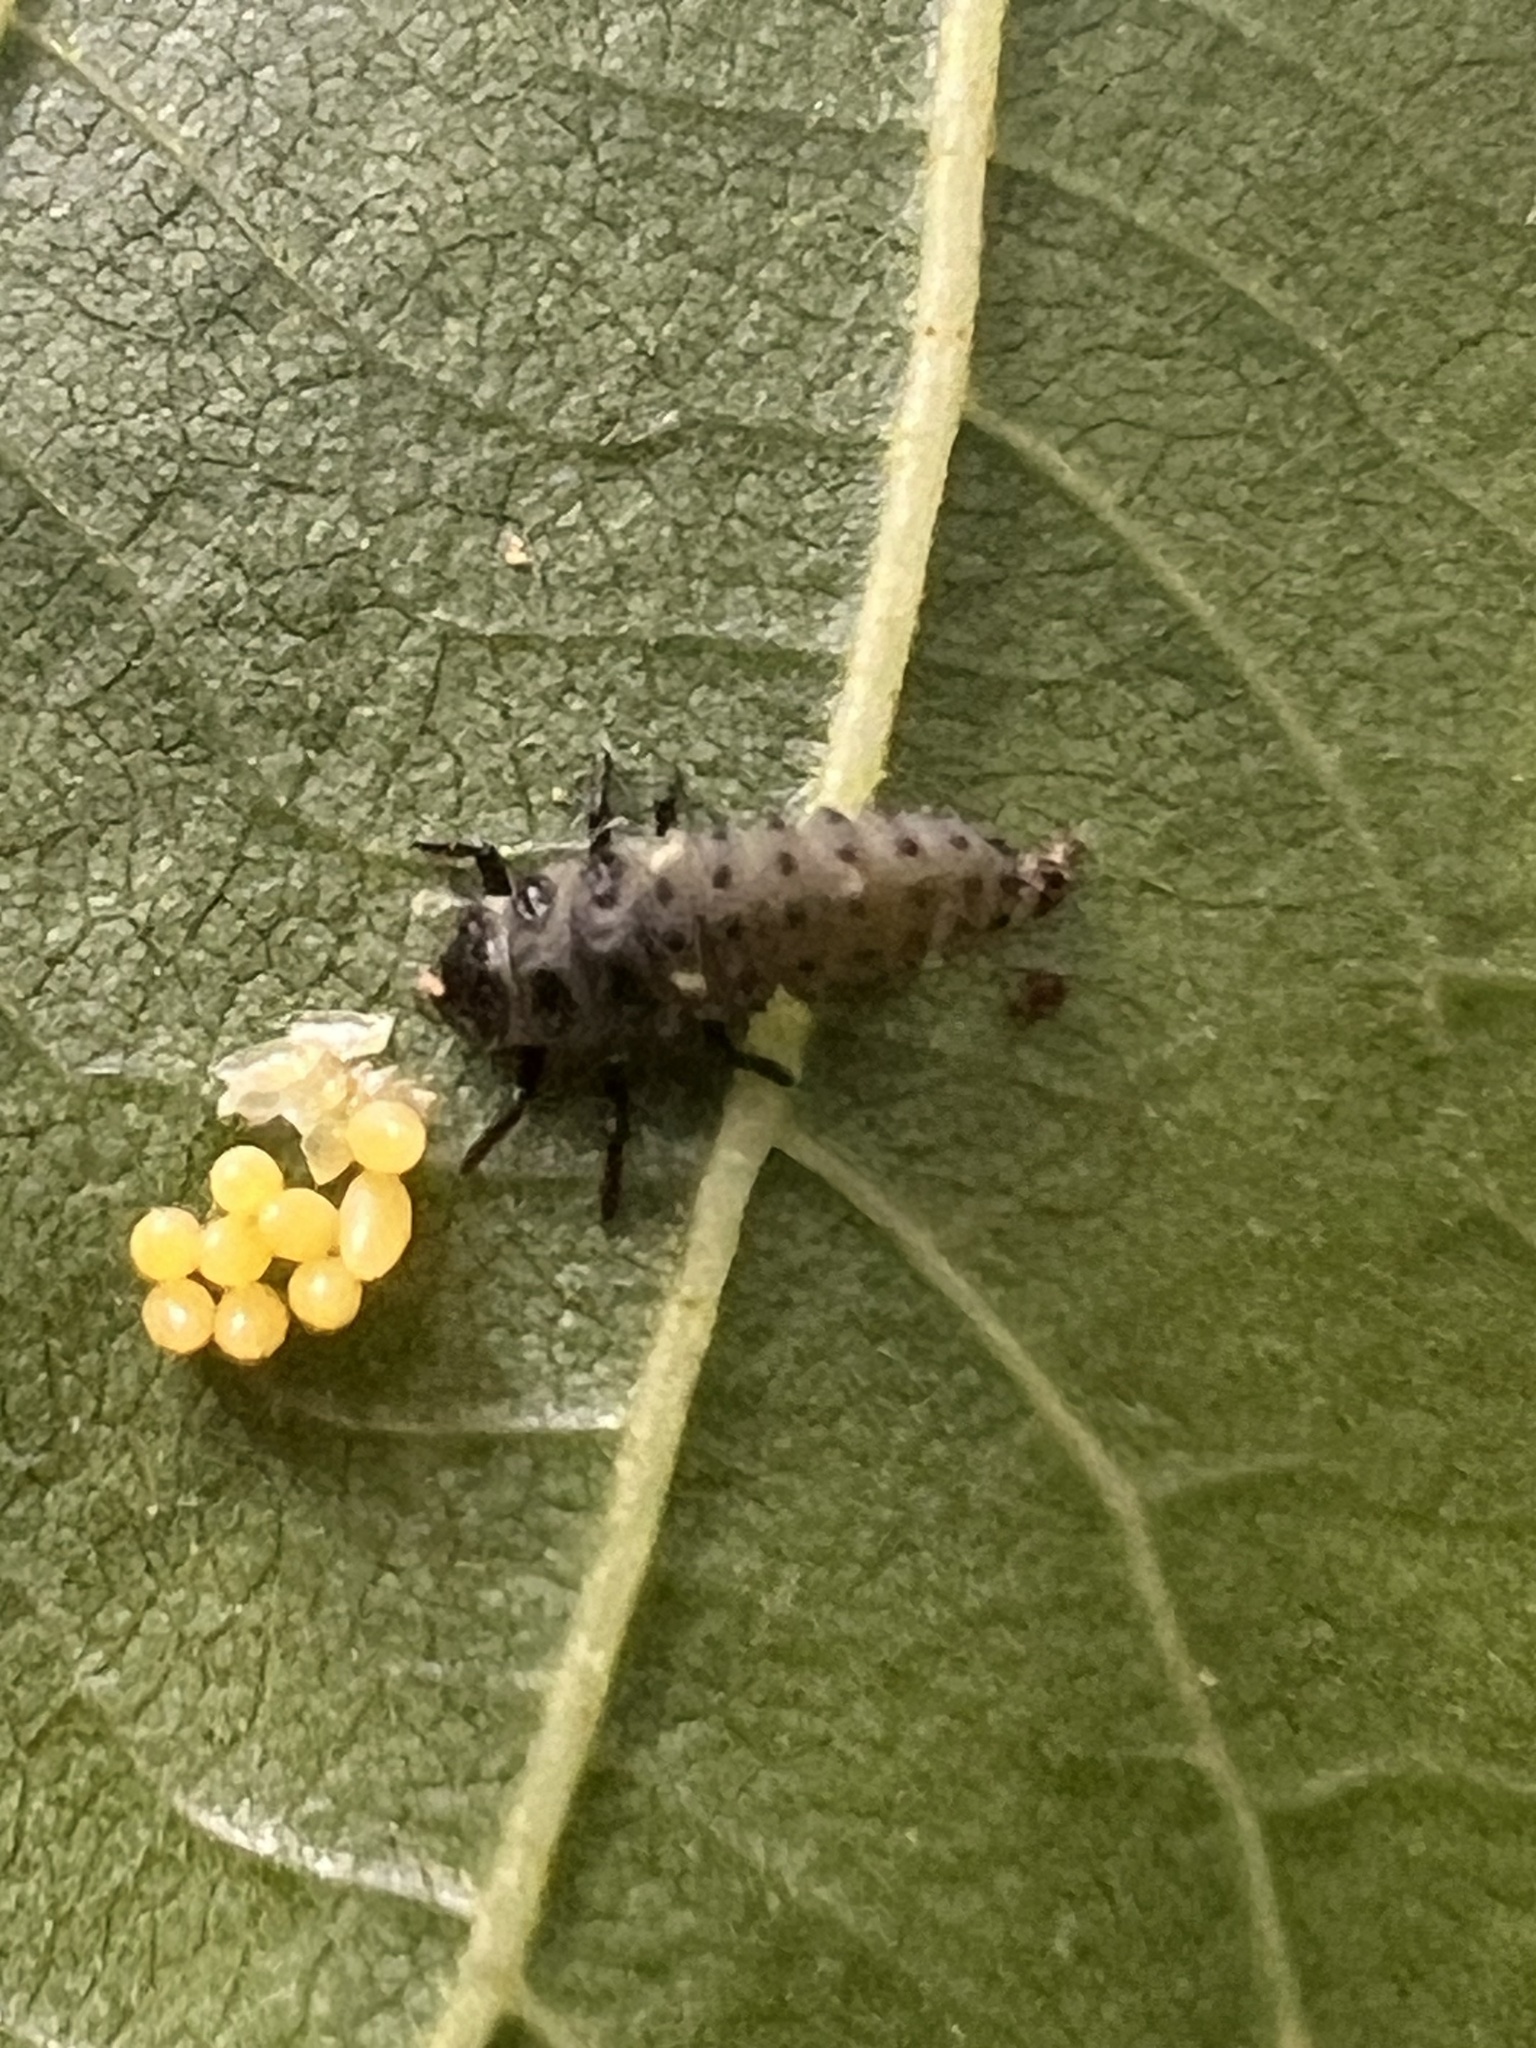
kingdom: Animalia
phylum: Arthropoda
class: Insecta
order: Coleoptera
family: Coccinellidae
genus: Adalia
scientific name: Adalia bipunctata
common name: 2-spot ladybird
